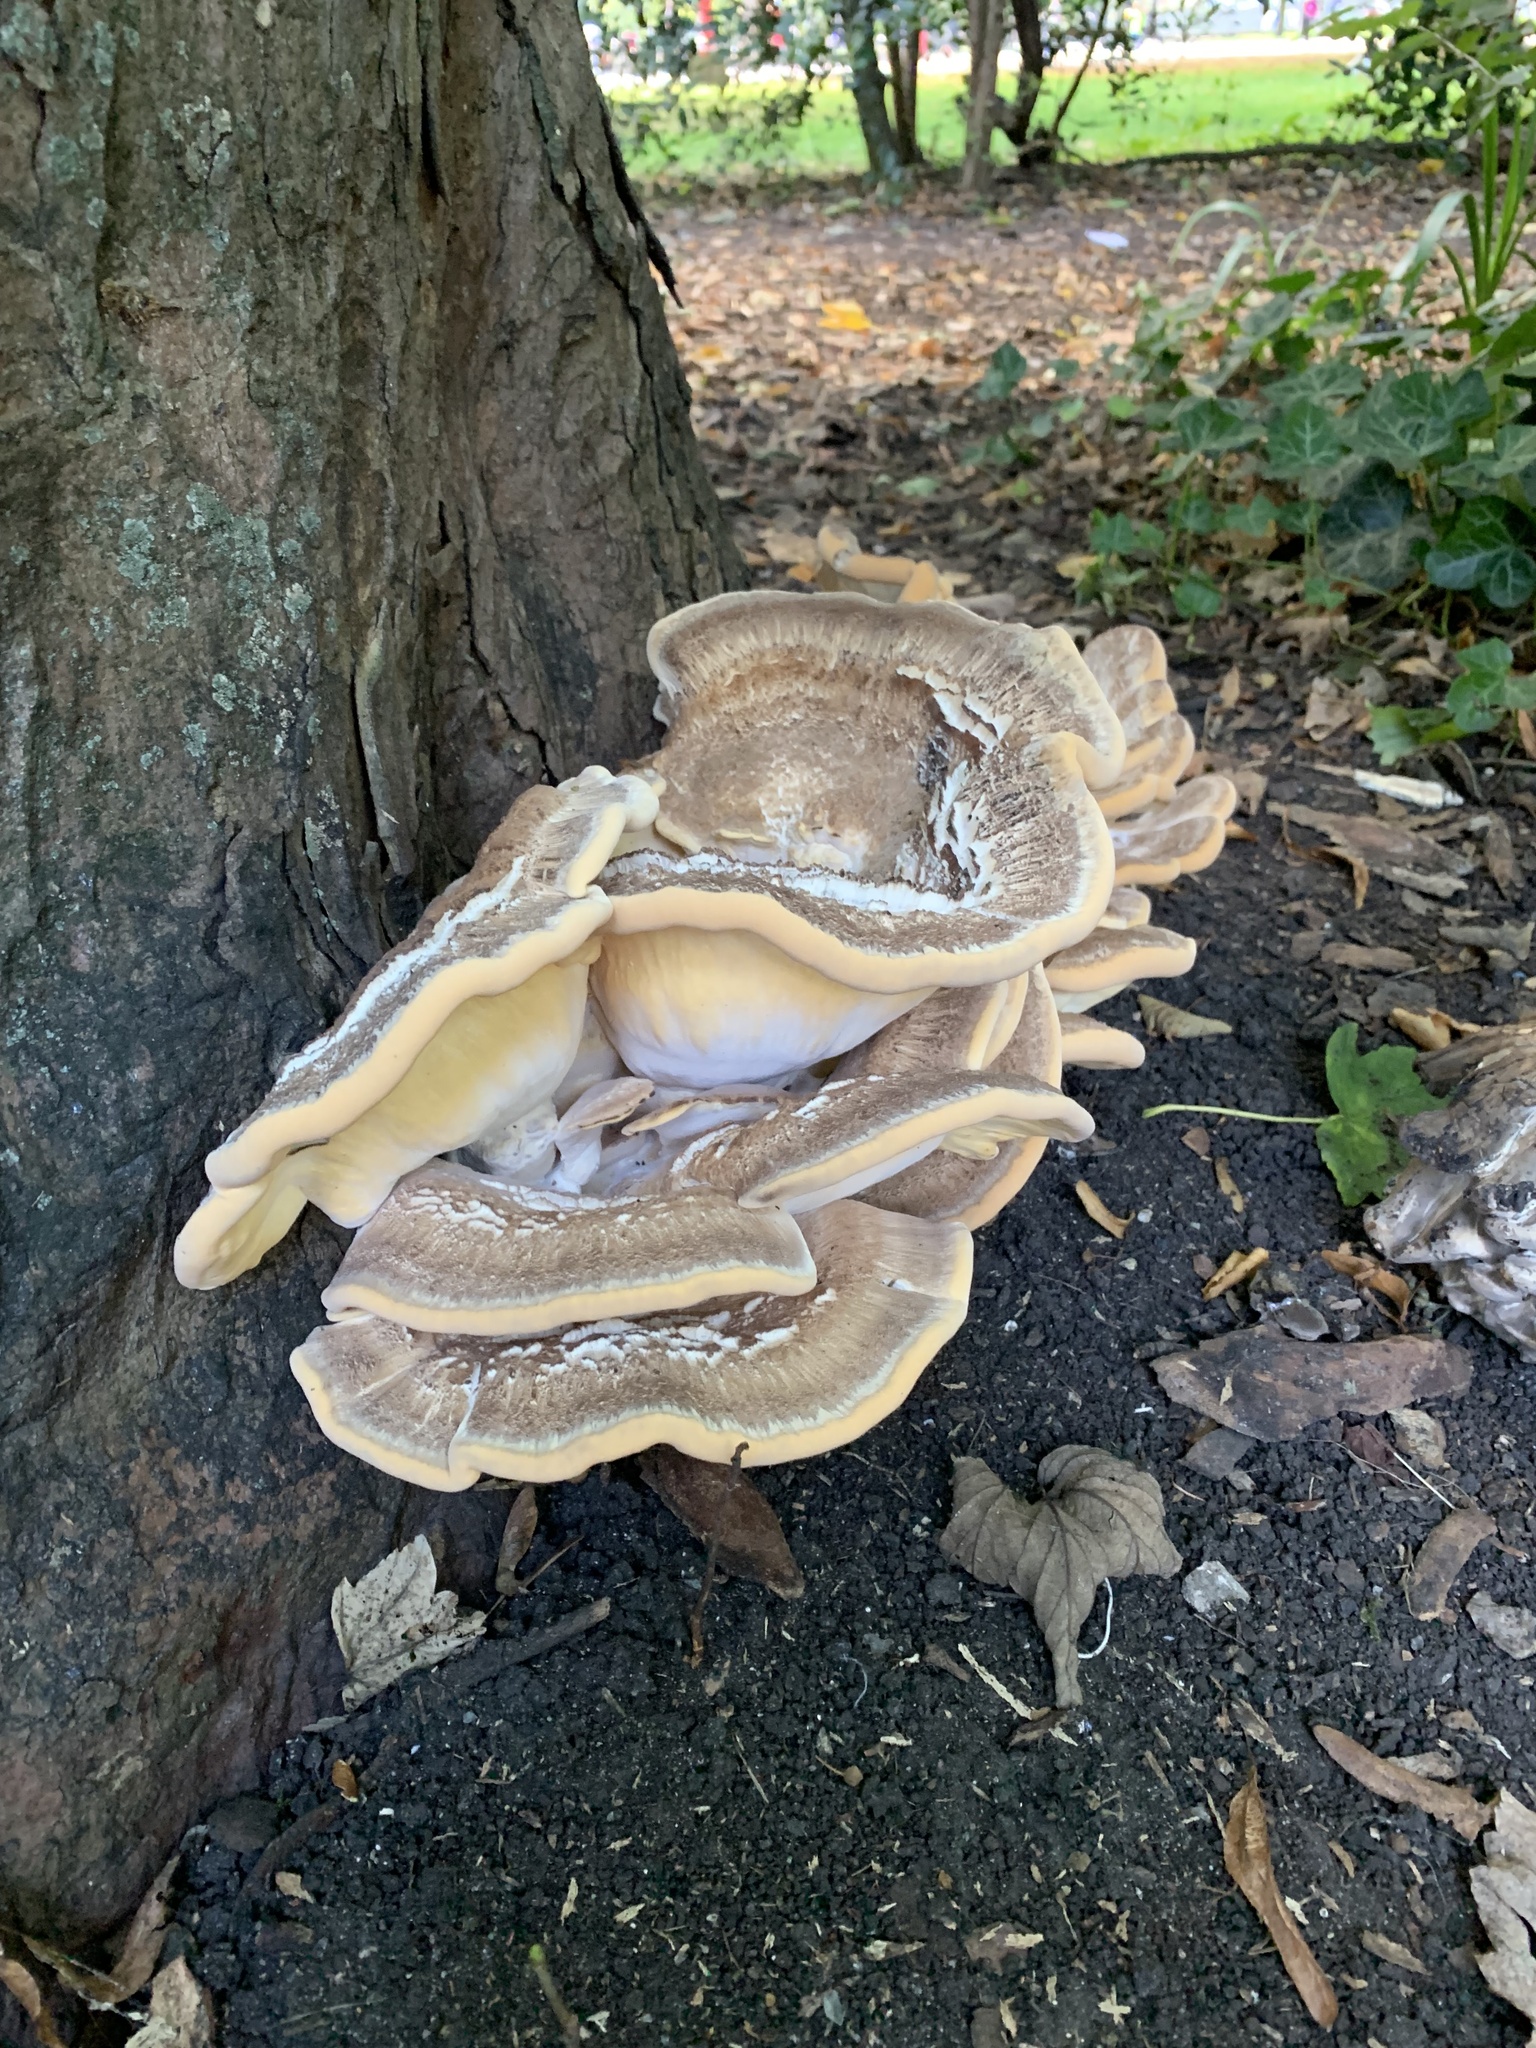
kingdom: Fungi
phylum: Basidiomycota
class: Agaricomycetes
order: Polyporales
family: Meripilaceae
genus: Meripilus
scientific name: Meripilus giganteus
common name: Giant polypore
